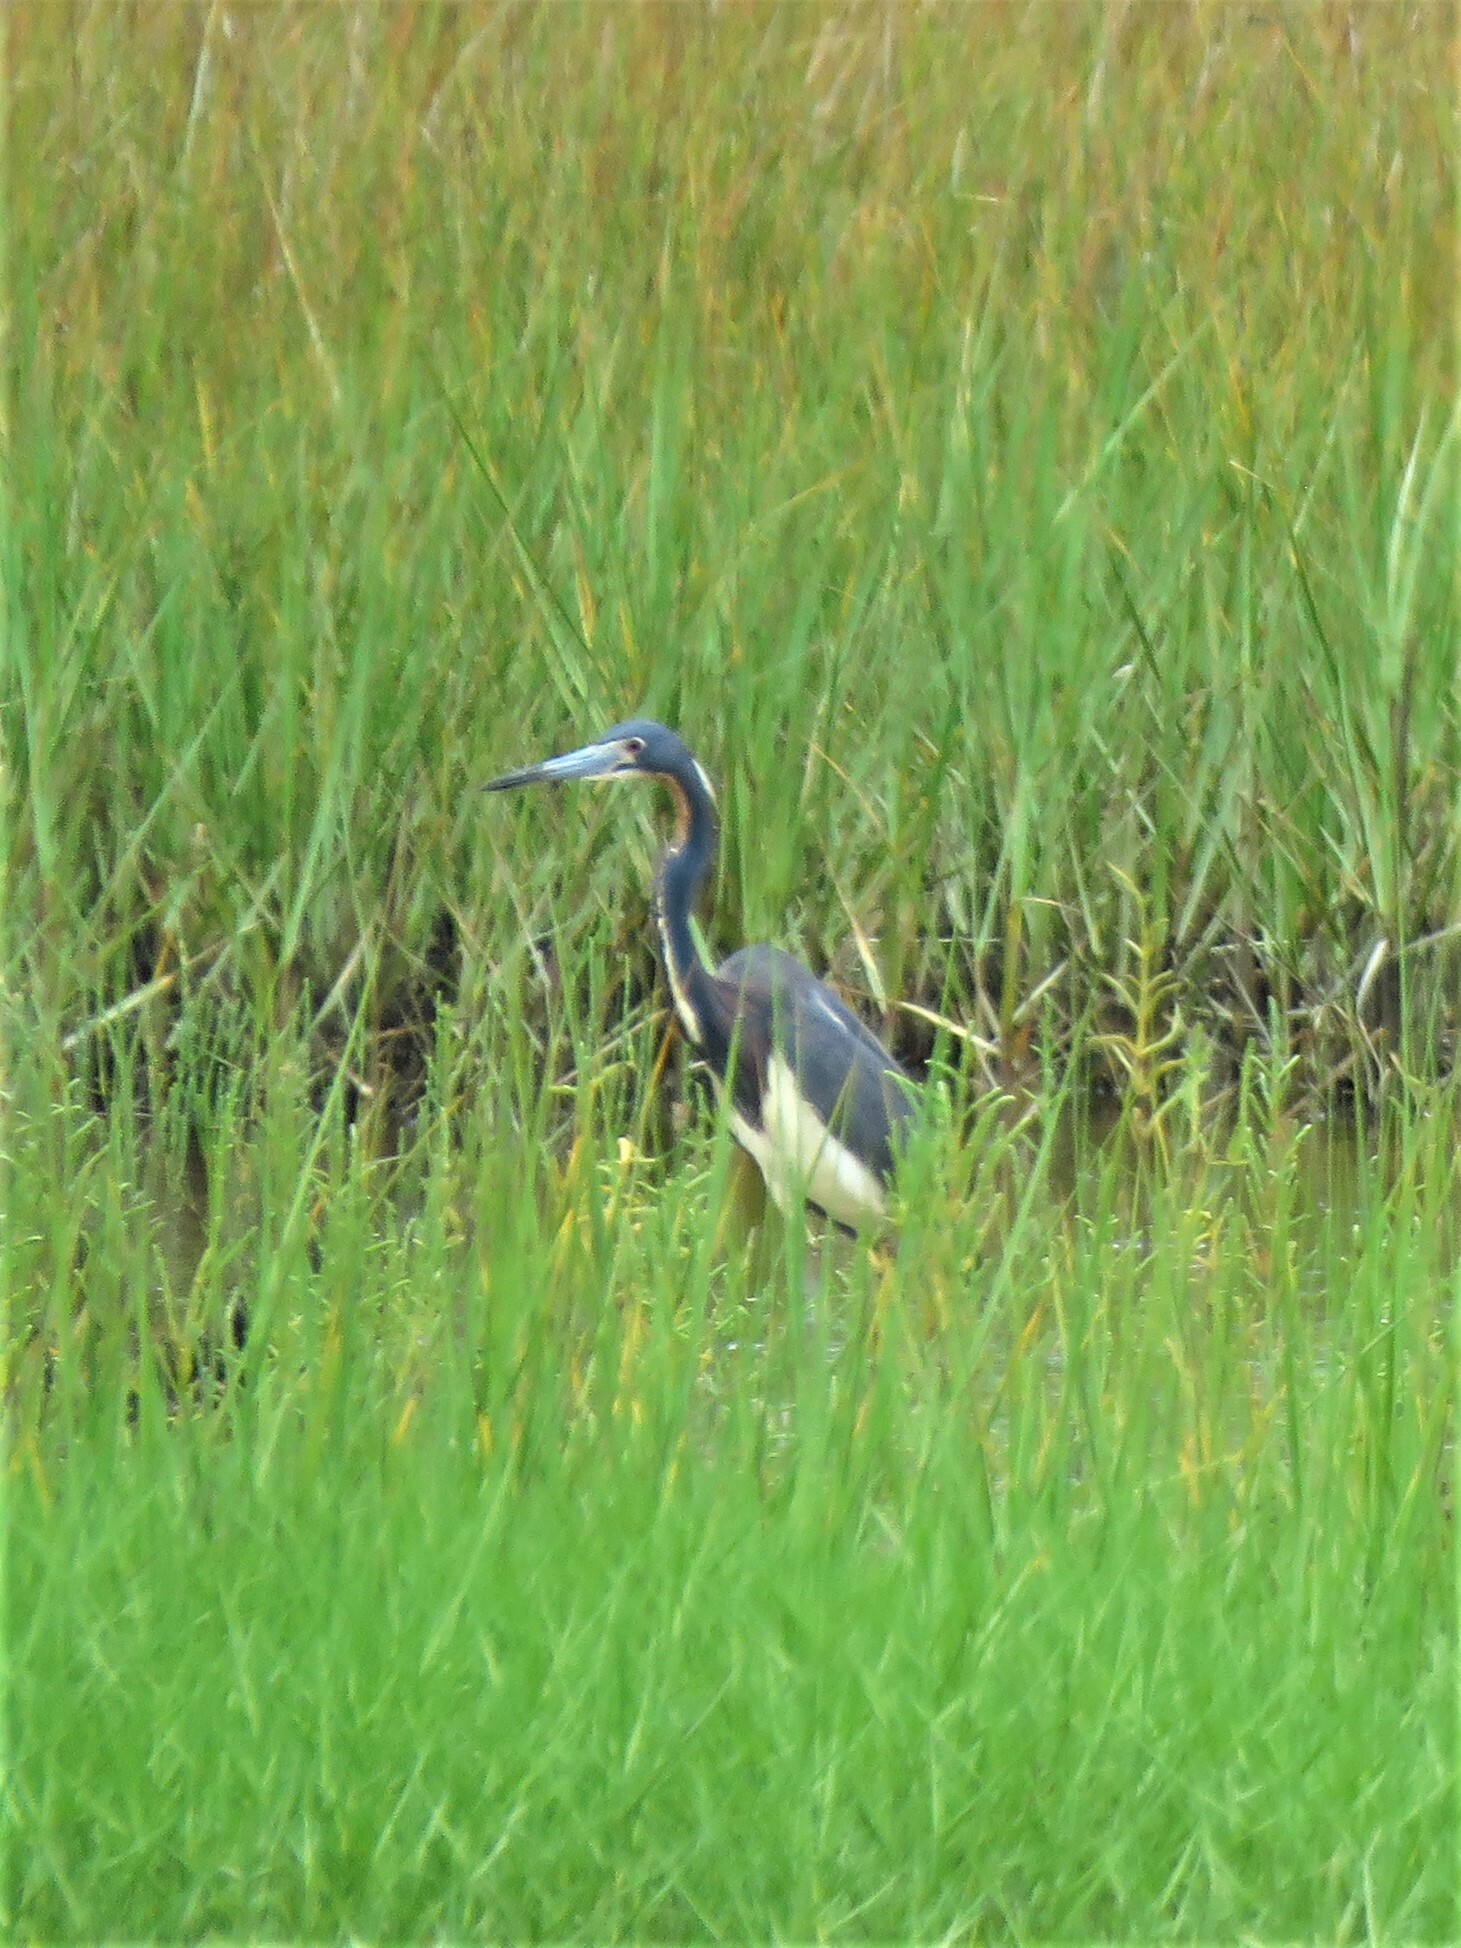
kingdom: Animalia
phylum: Chordata
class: Aves
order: Pelecaniformes
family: Ardeidae
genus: Egretta
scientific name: Egretta tricolor
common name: Tricolored heron
